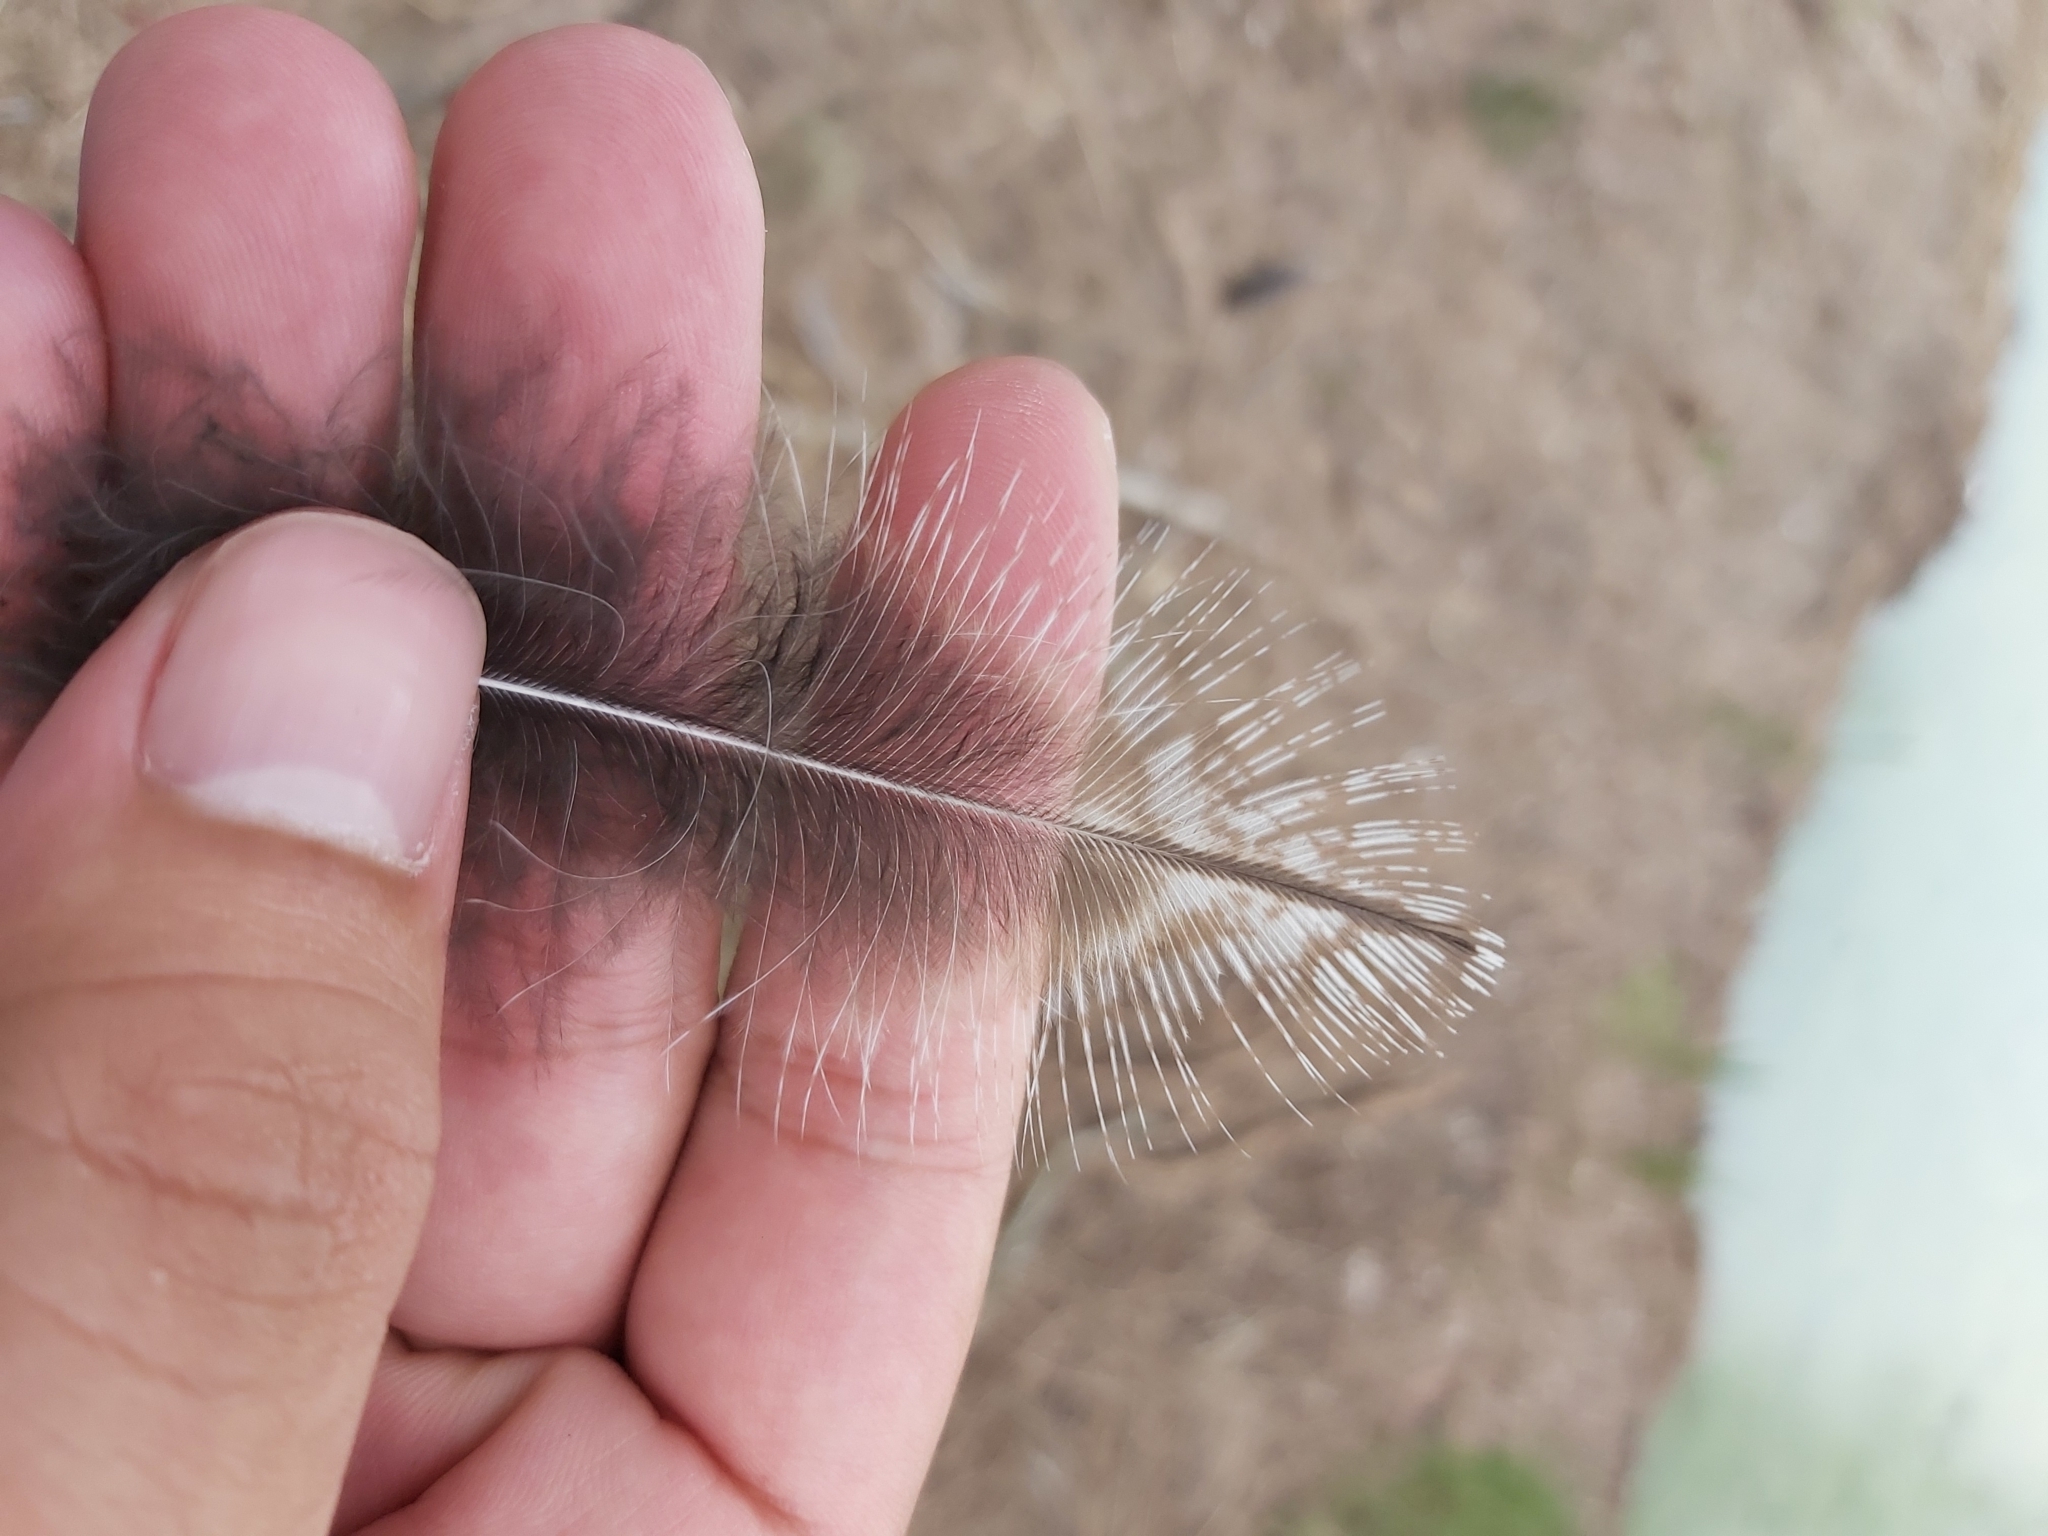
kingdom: Animalia
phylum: Chordata
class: Aves
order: Caprimulgiformes
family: Podargidae
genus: Podargus
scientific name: Podargus strigoides
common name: Tawny frogmouth
